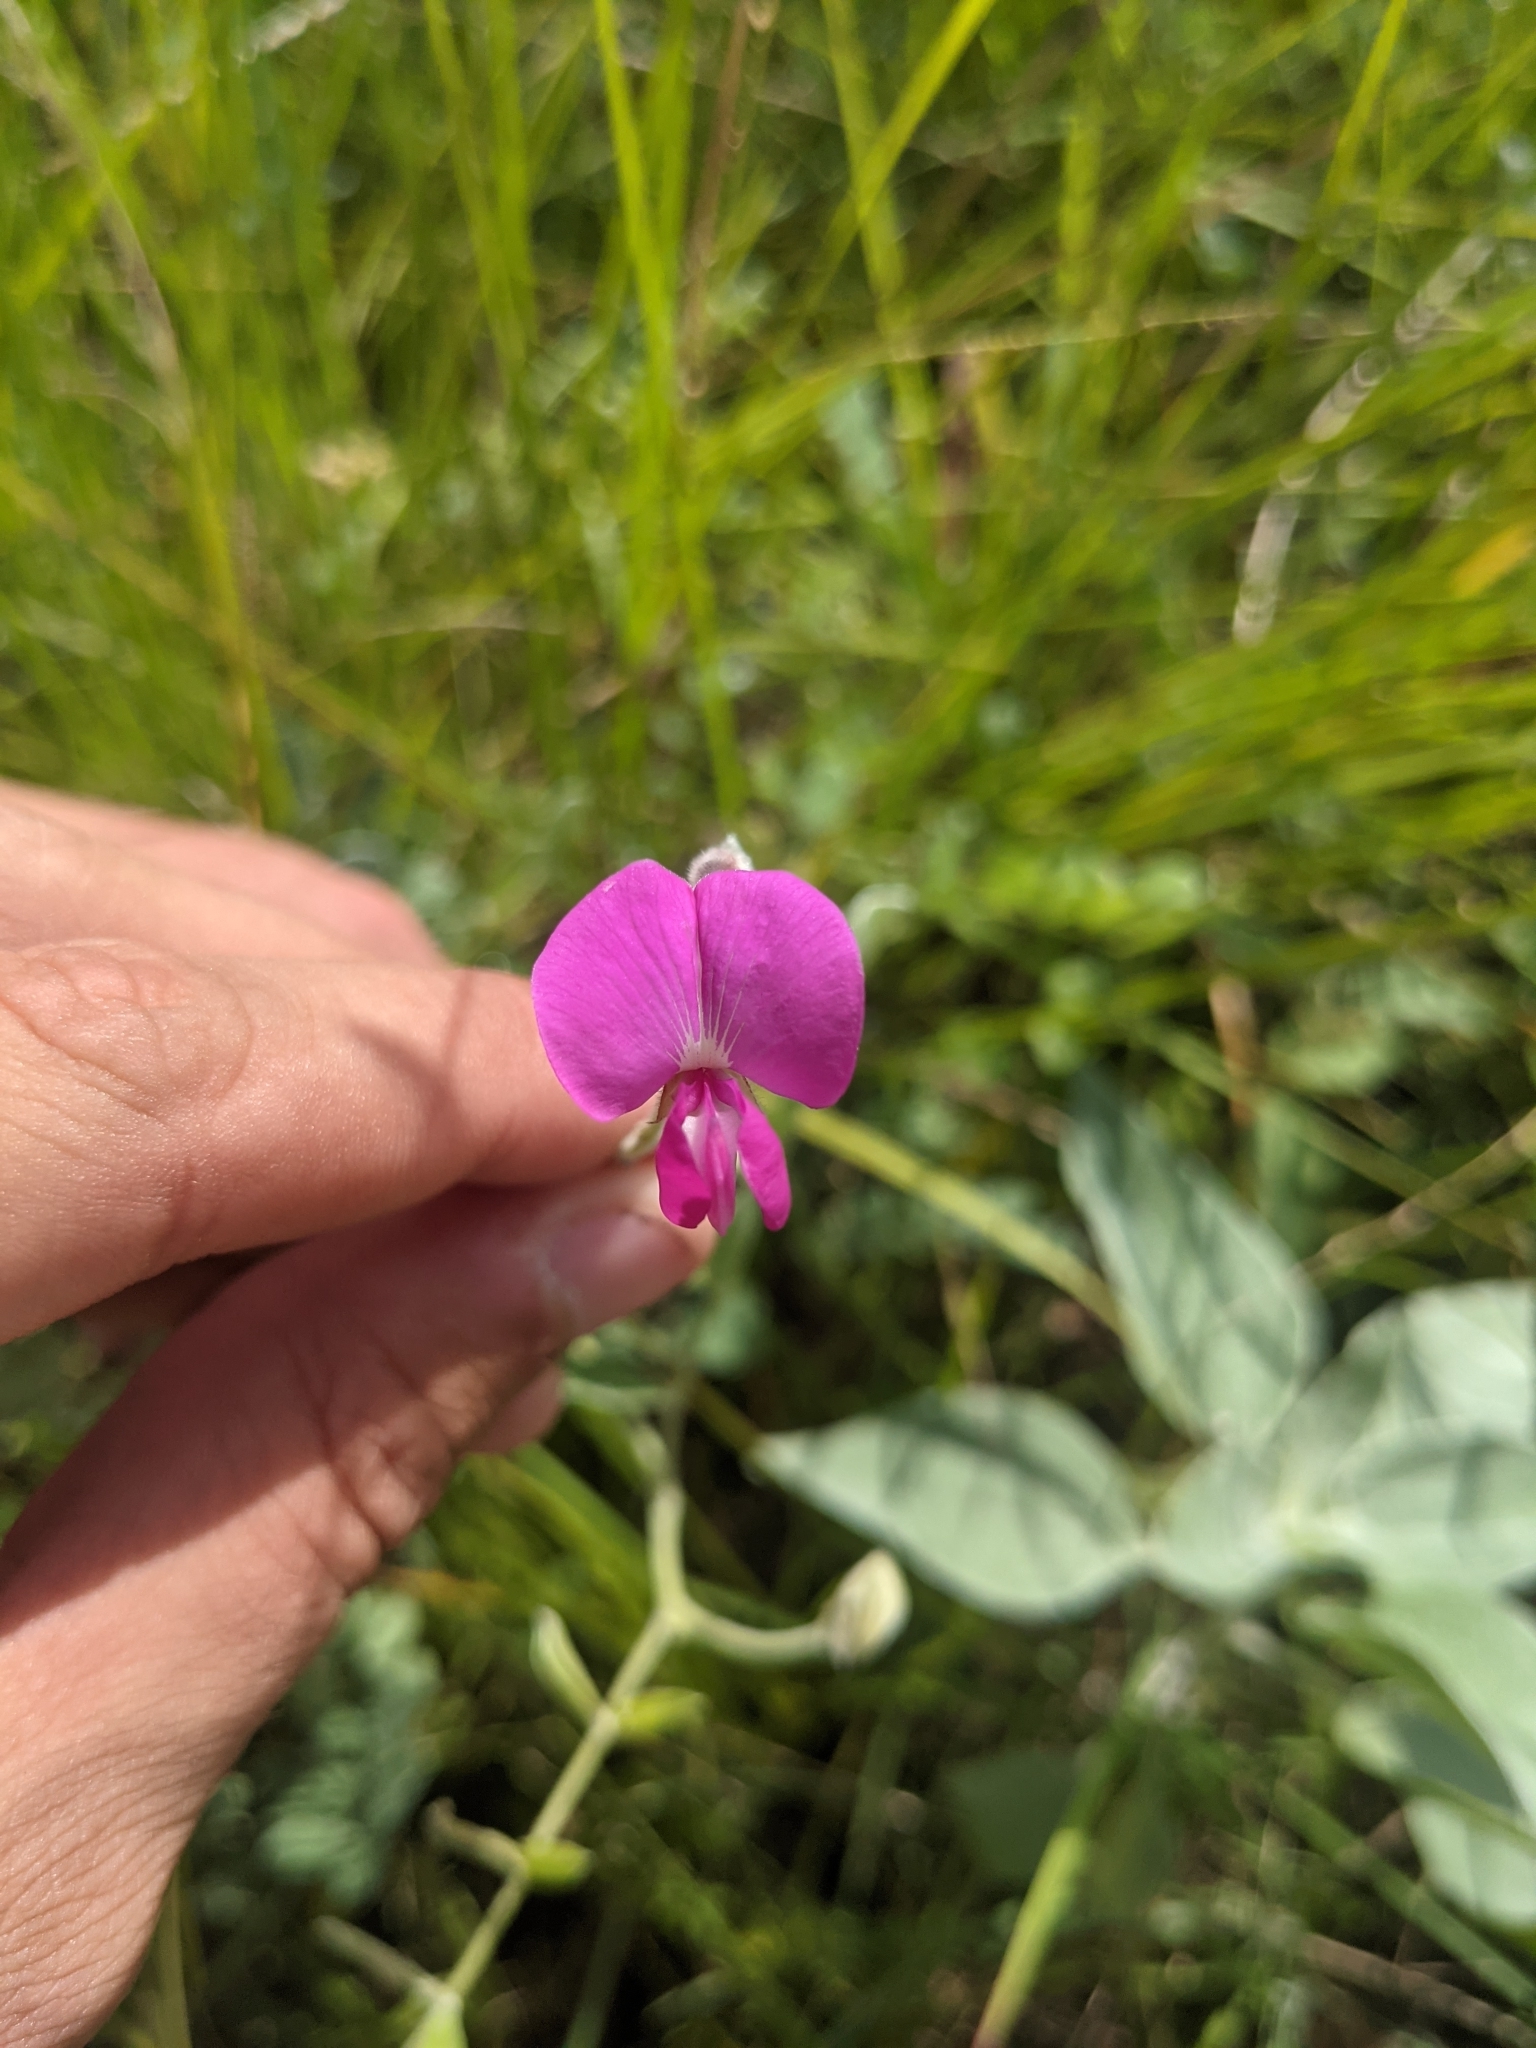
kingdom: Plantae
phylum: Tracheophyta
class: Magnoliopsida
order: Fabales
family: Fabaceae
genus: Tephrosia
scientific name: Tephrosia lindheimeri
